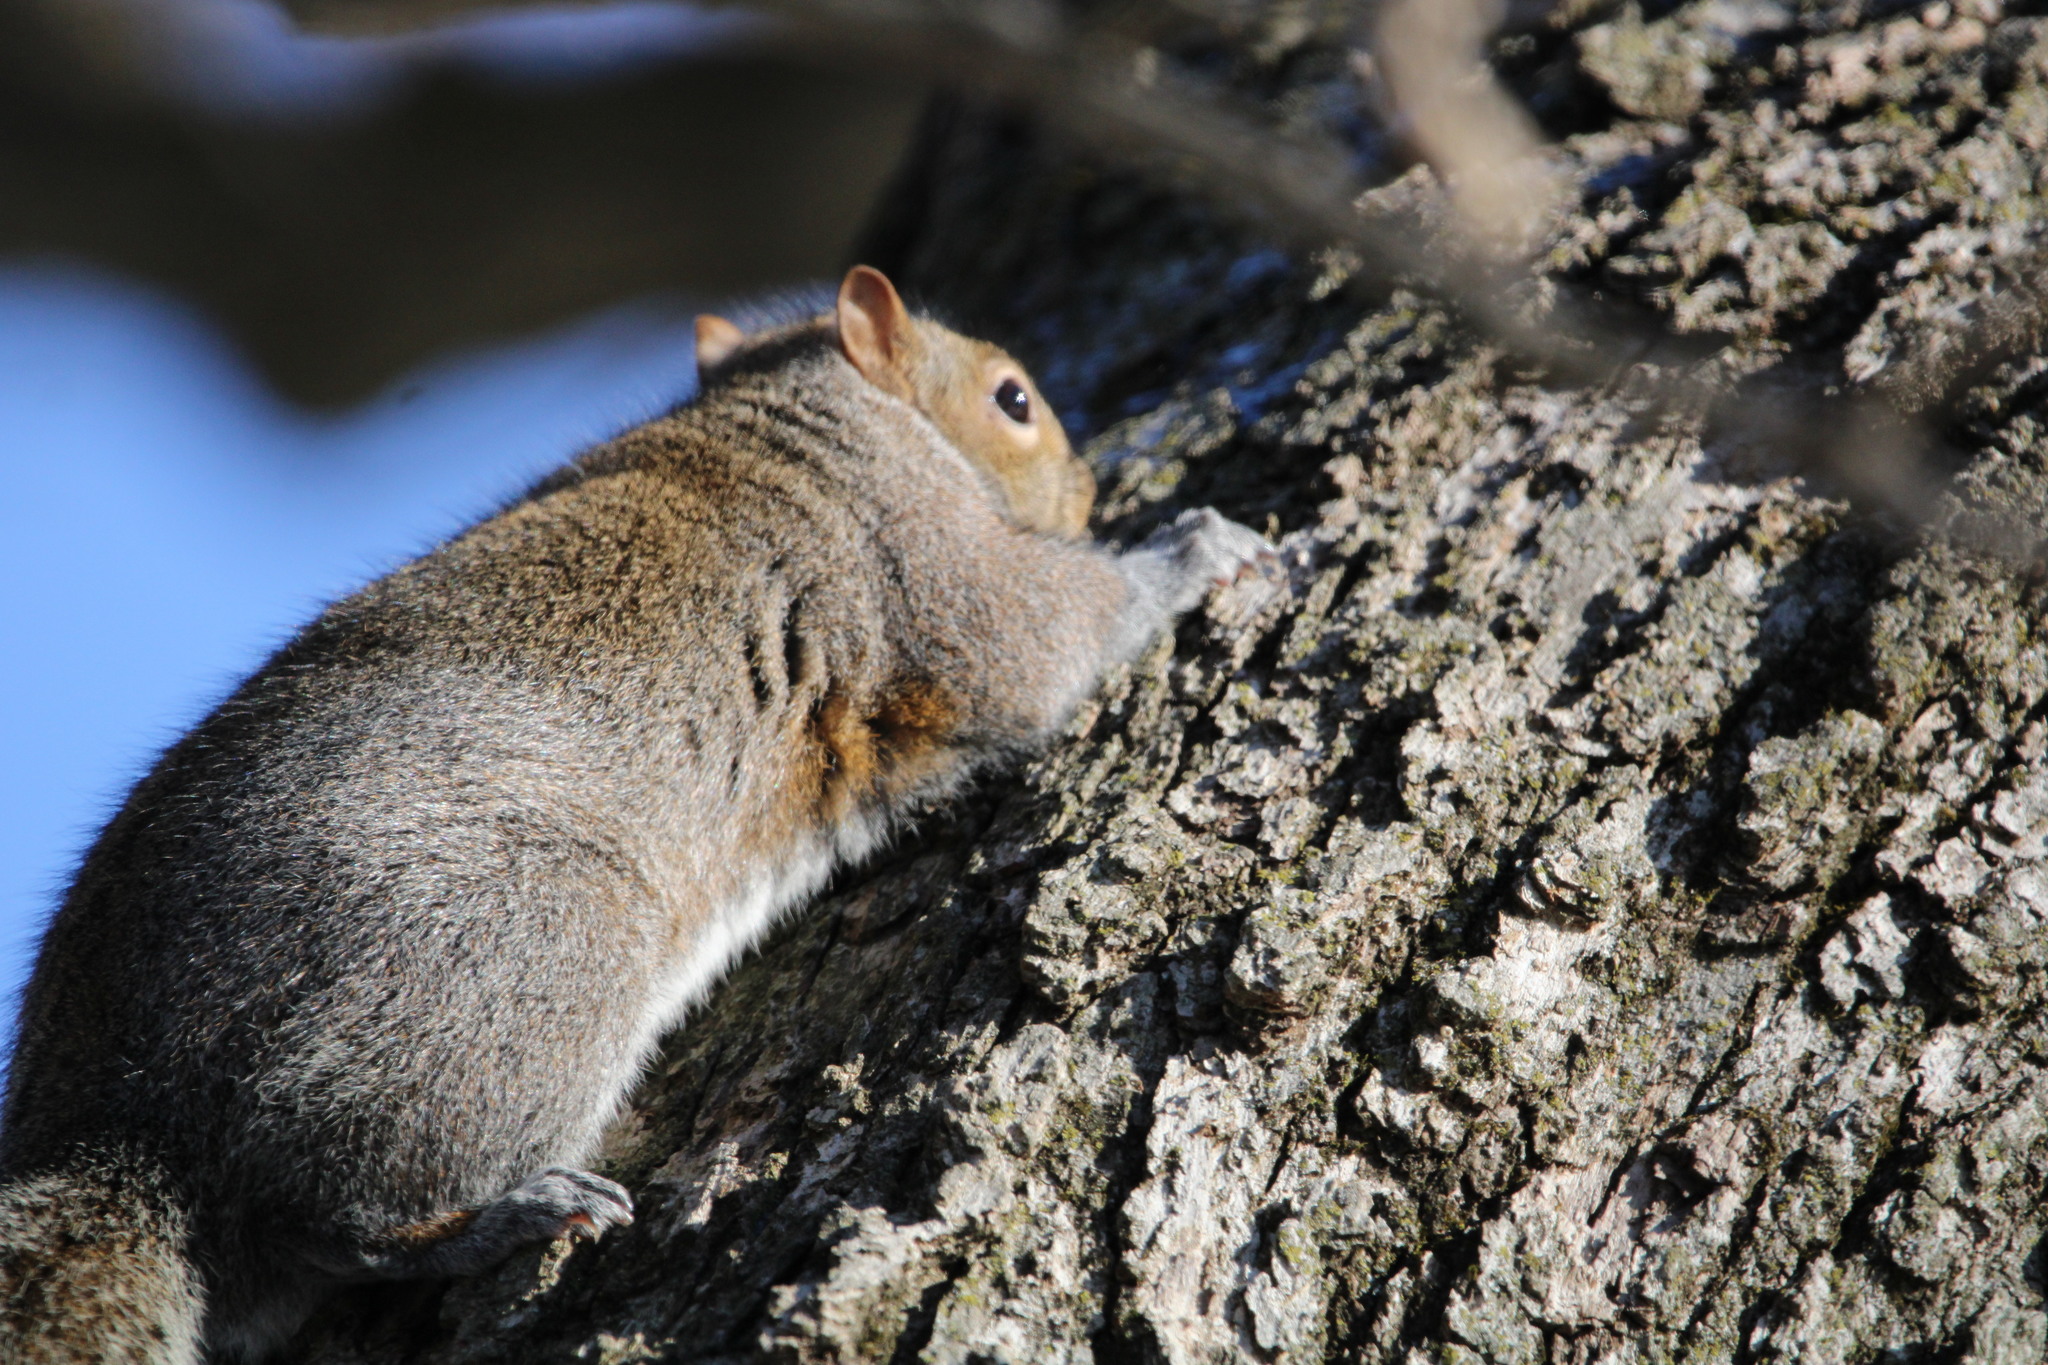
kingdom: Animalia
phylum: Chordata
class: Mammalia
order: Rodentia
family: Sciuridae
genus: Sciurus
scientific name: Sciurus carolinensis
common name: Eastern gray squirrel
